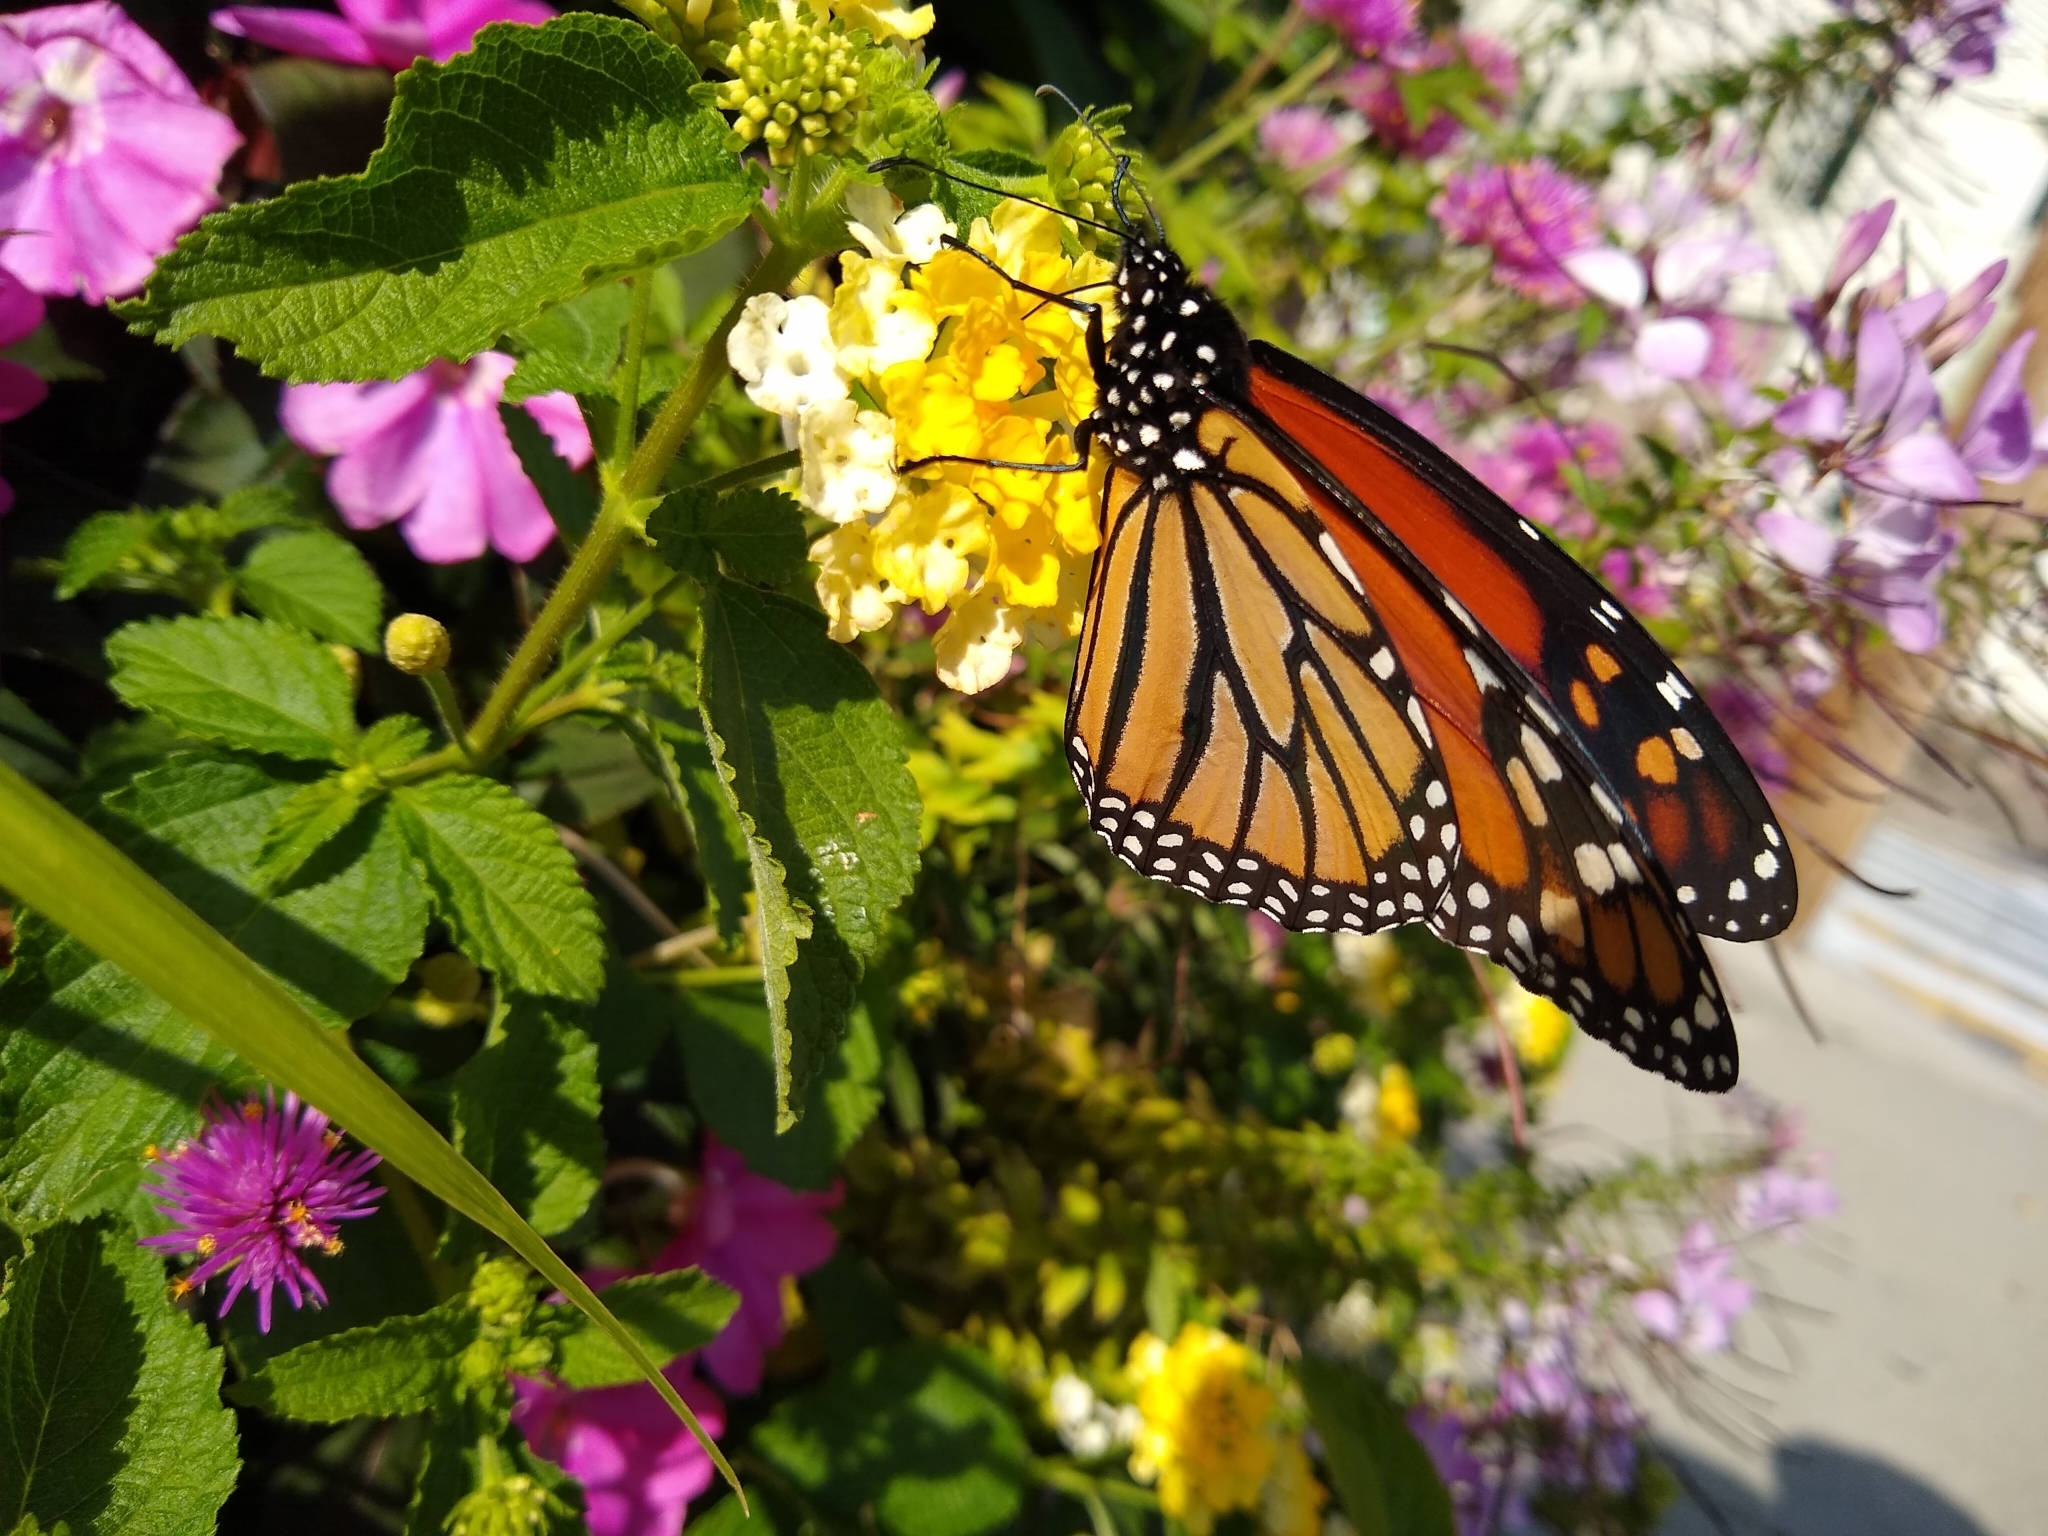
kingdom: Animalia
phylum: Arthropoda
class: Insecta
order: Lepidoptera
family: Nymphalidae
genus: Danaus
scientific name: Danaus plexippus
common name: Monarch
